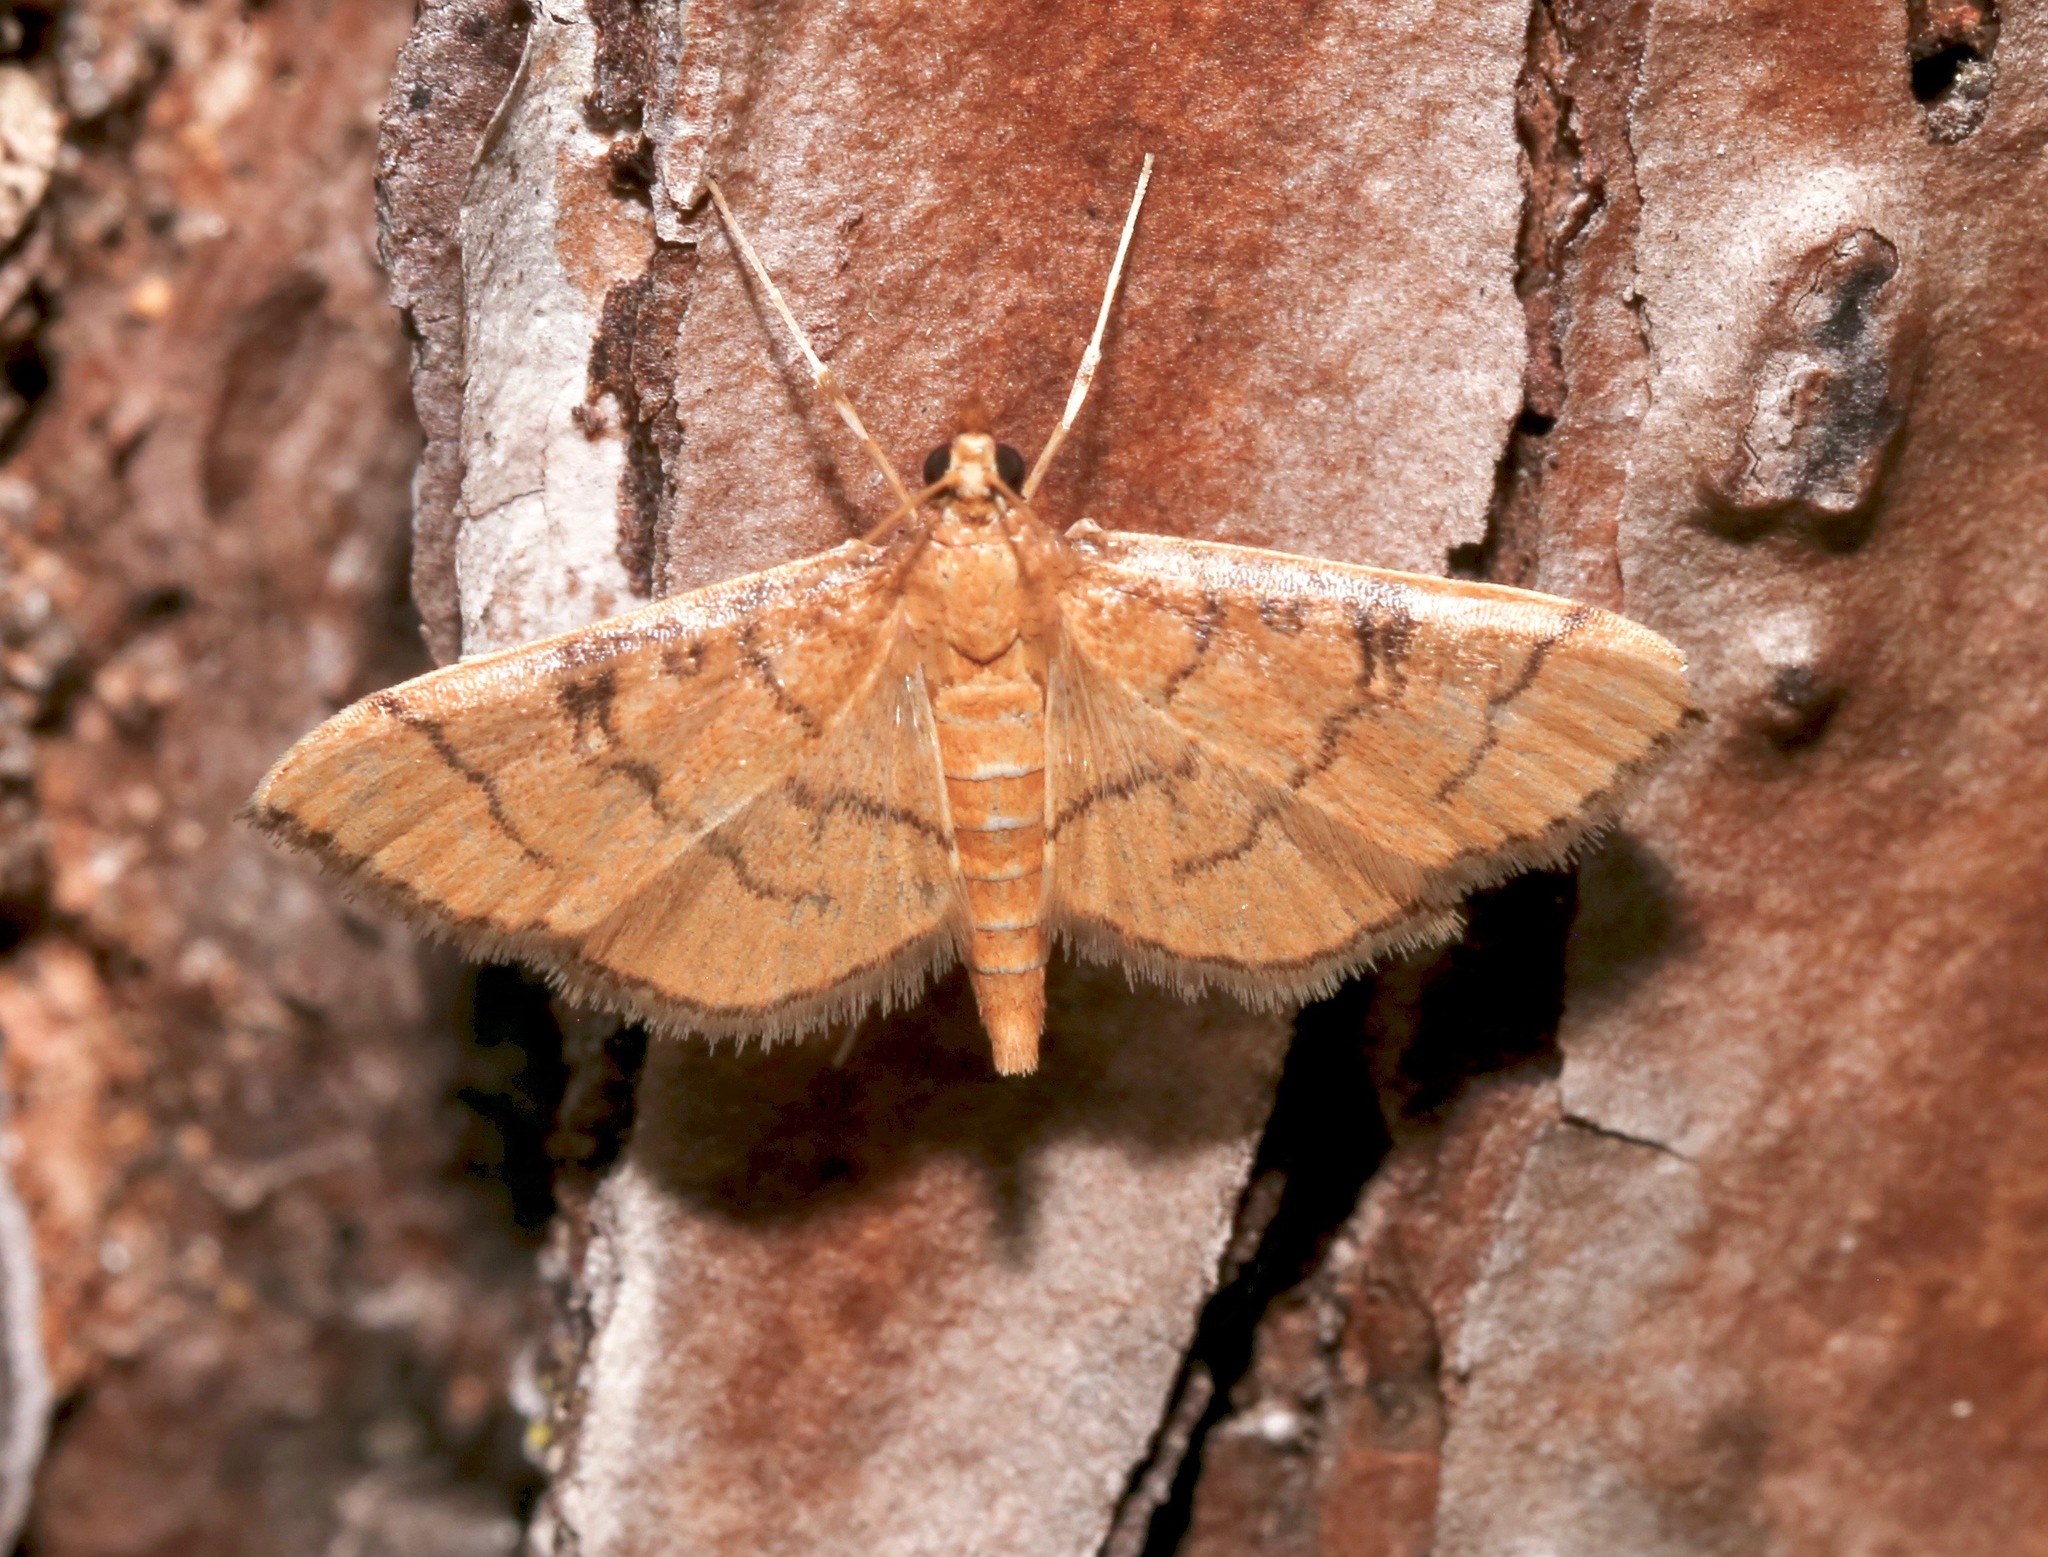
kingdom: Animalia
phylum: Arthropoda
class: Insecta
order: Lepidoptera
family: Crambidae
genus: Lamprosema
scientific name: Lamprosema Blepharomastix ranalis
